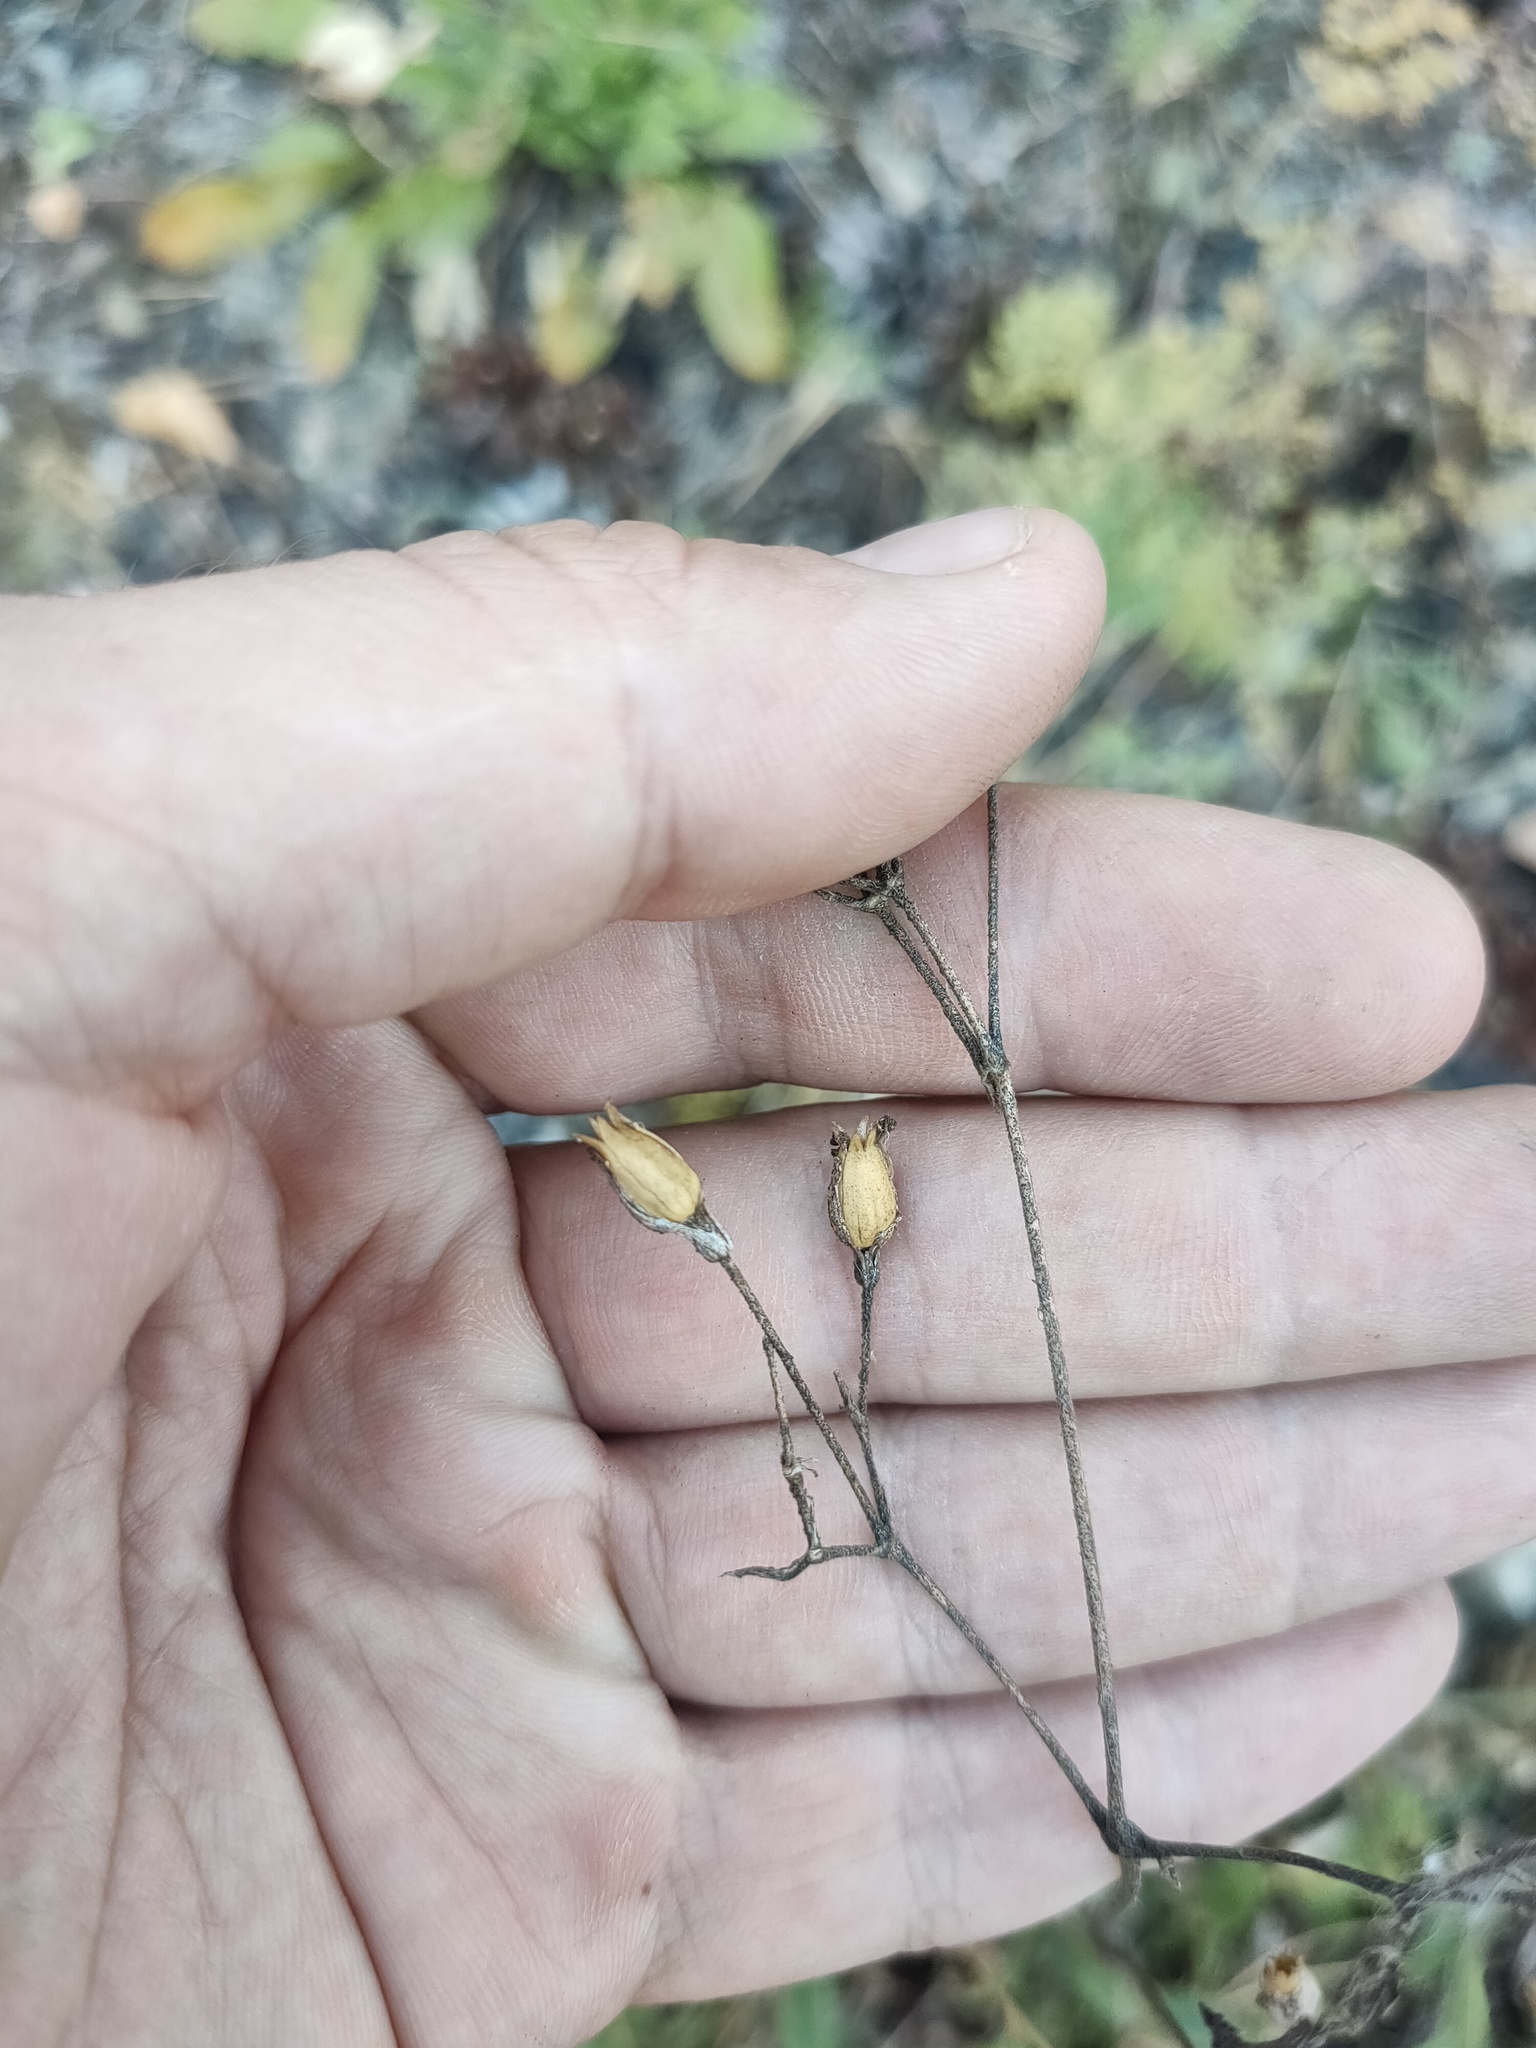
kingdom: Plantae
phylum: Tracheophyta
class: Magnoliopsida
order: Caryophyllales
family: Caryophyllaceae
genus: Silene
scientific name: Silene nutans
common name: Nottingham catchfly
